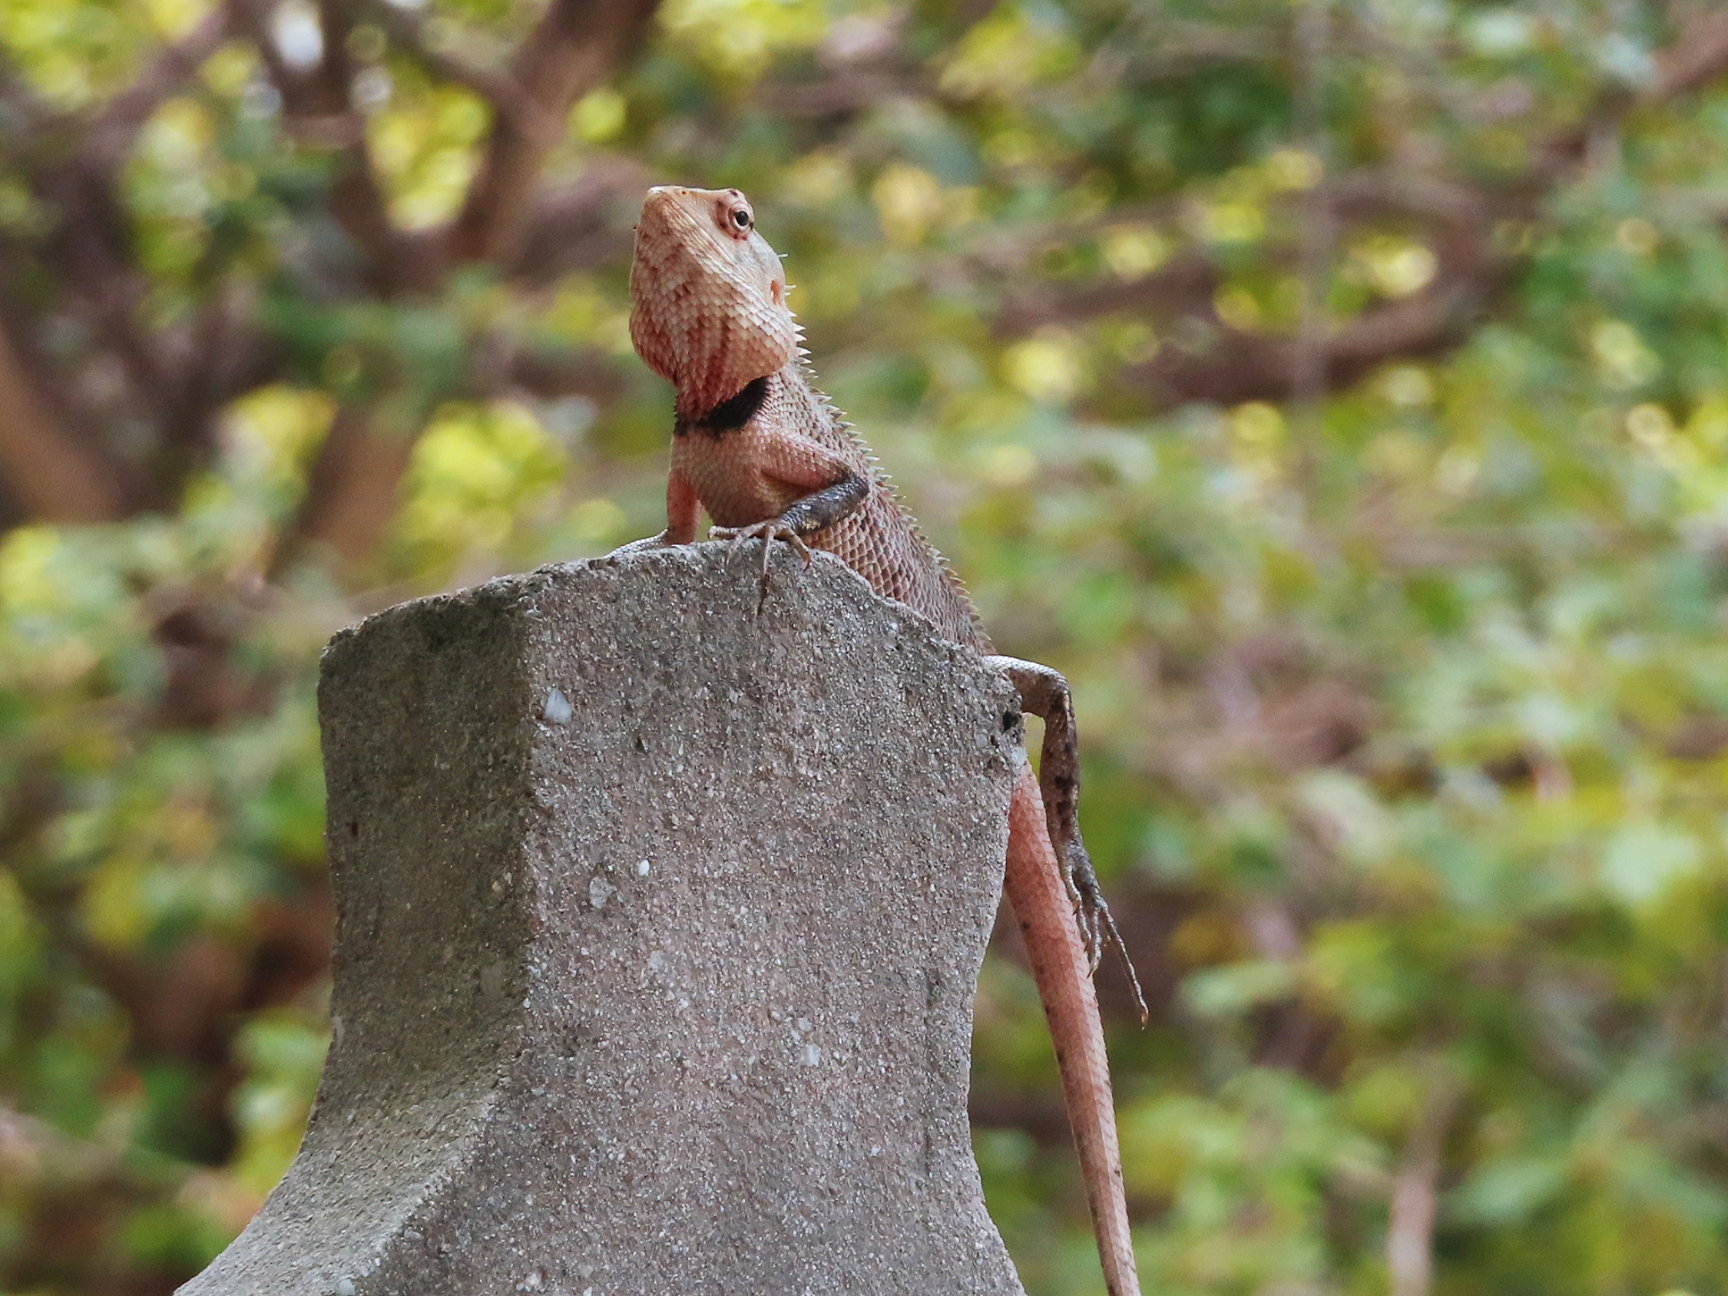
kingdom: Animalia
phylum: Chordata
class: Squamata
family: Agamidae
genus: Calotes
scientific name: Calotes versicolor
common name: Oriental garden lizard
